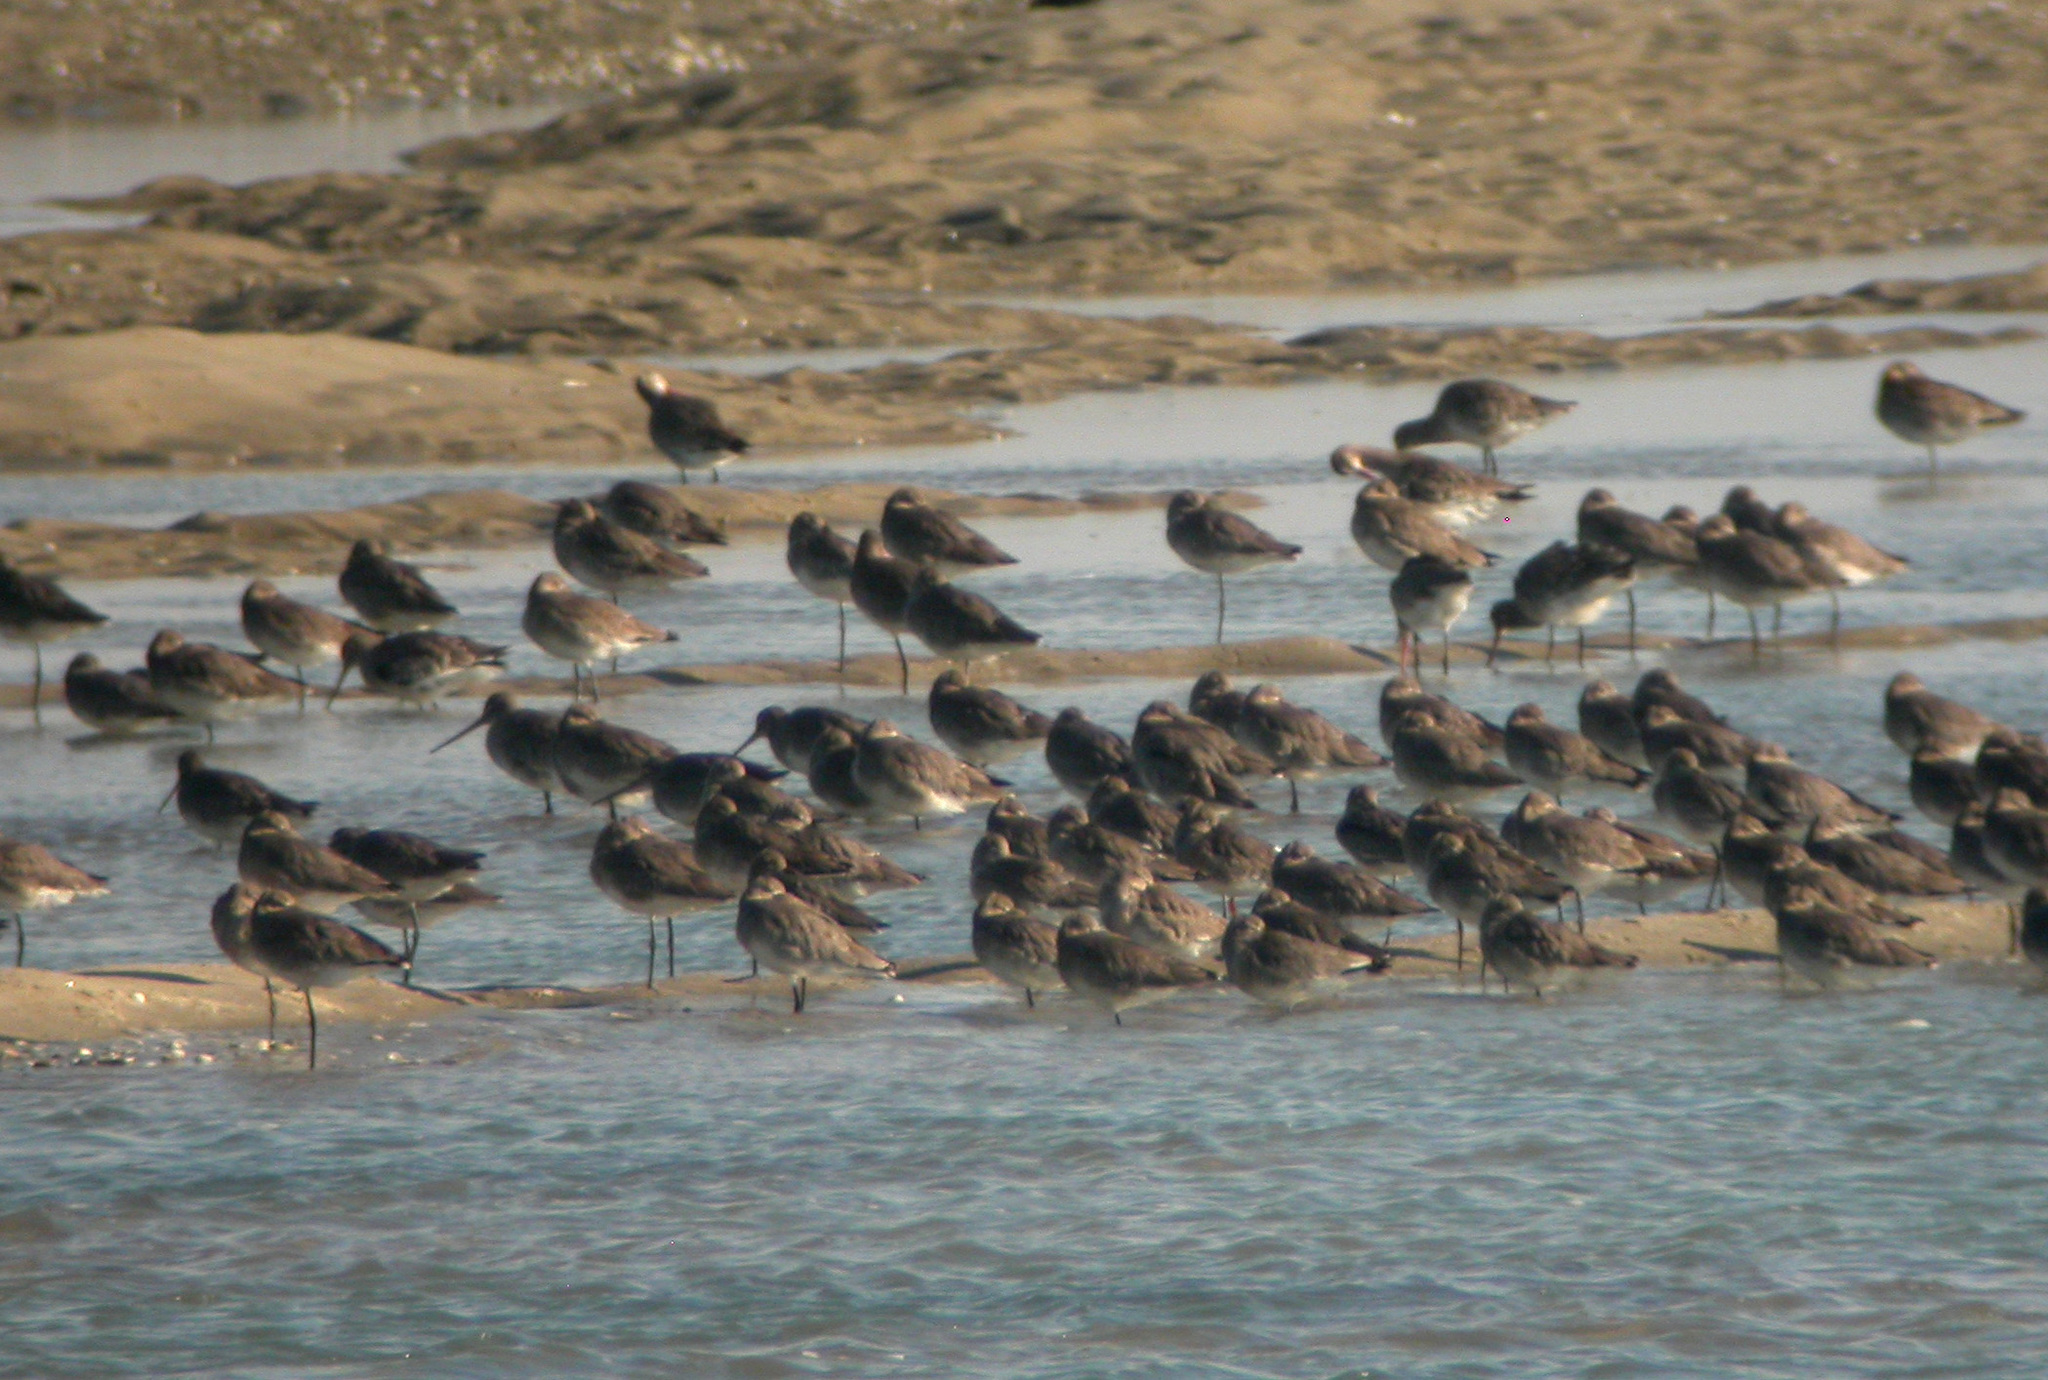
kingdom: Animalia
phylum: Chordata
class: Aves
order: Charadriiformes
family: Scolopacidae
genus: Limosa
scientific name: Limosa limosa
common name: Black-tailed godwit
